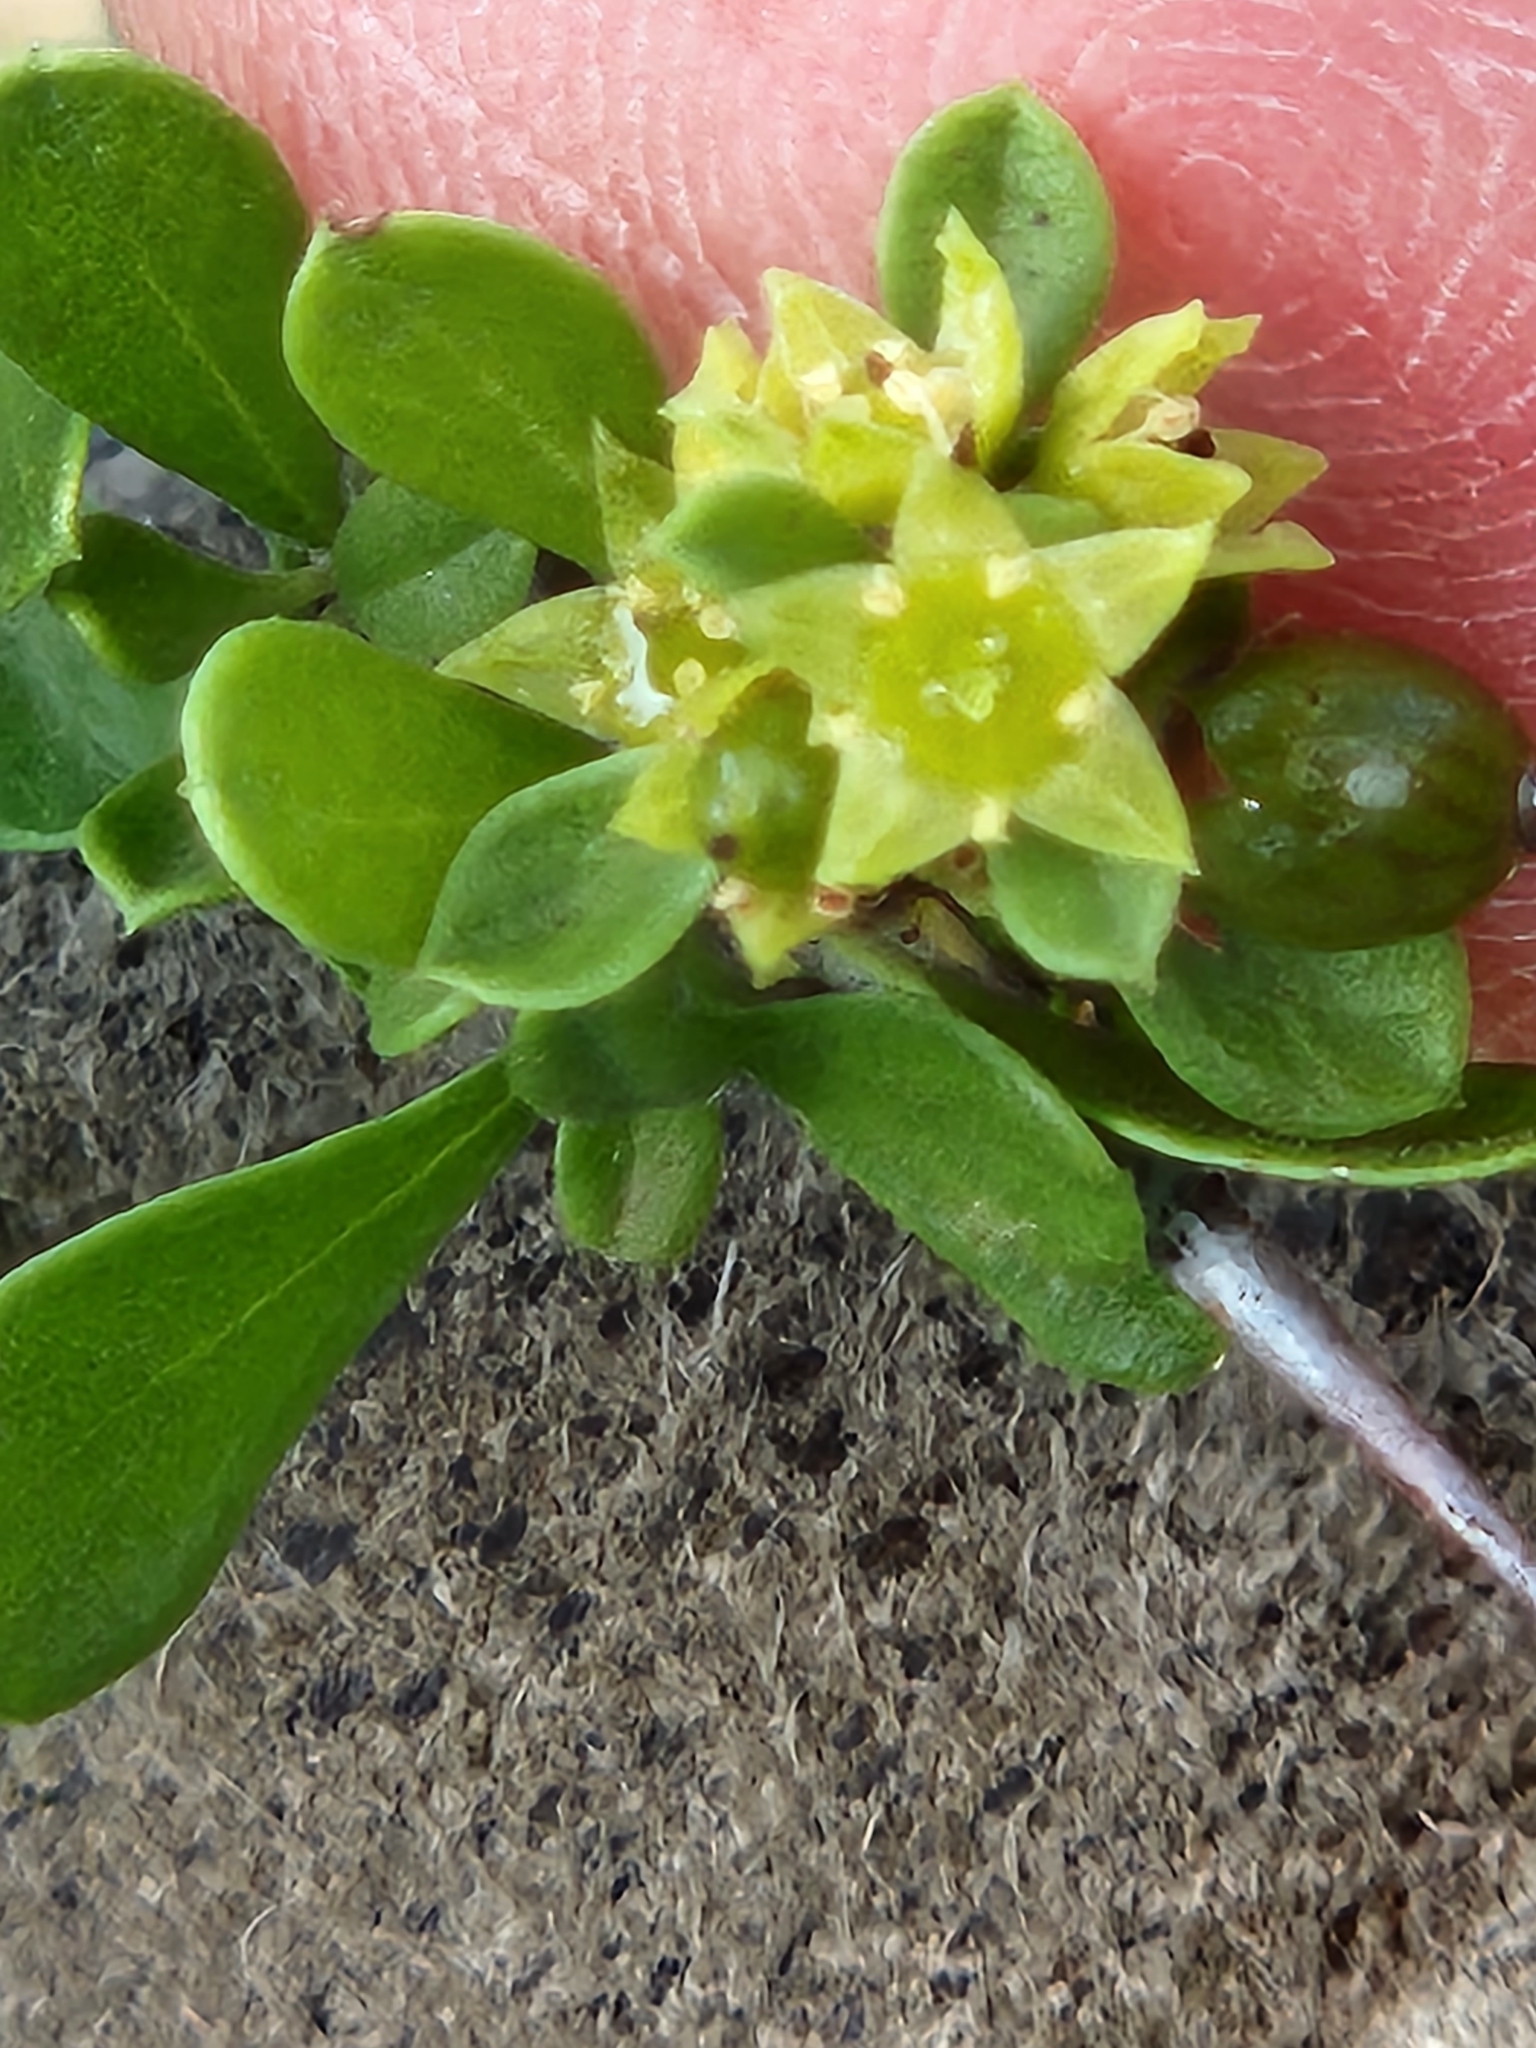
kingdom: Plantae
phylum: Tracheophyta
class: Magnoliopsida
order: Rosales
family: Rhamnaceae
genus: Condalia
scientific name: Condalia viridis
